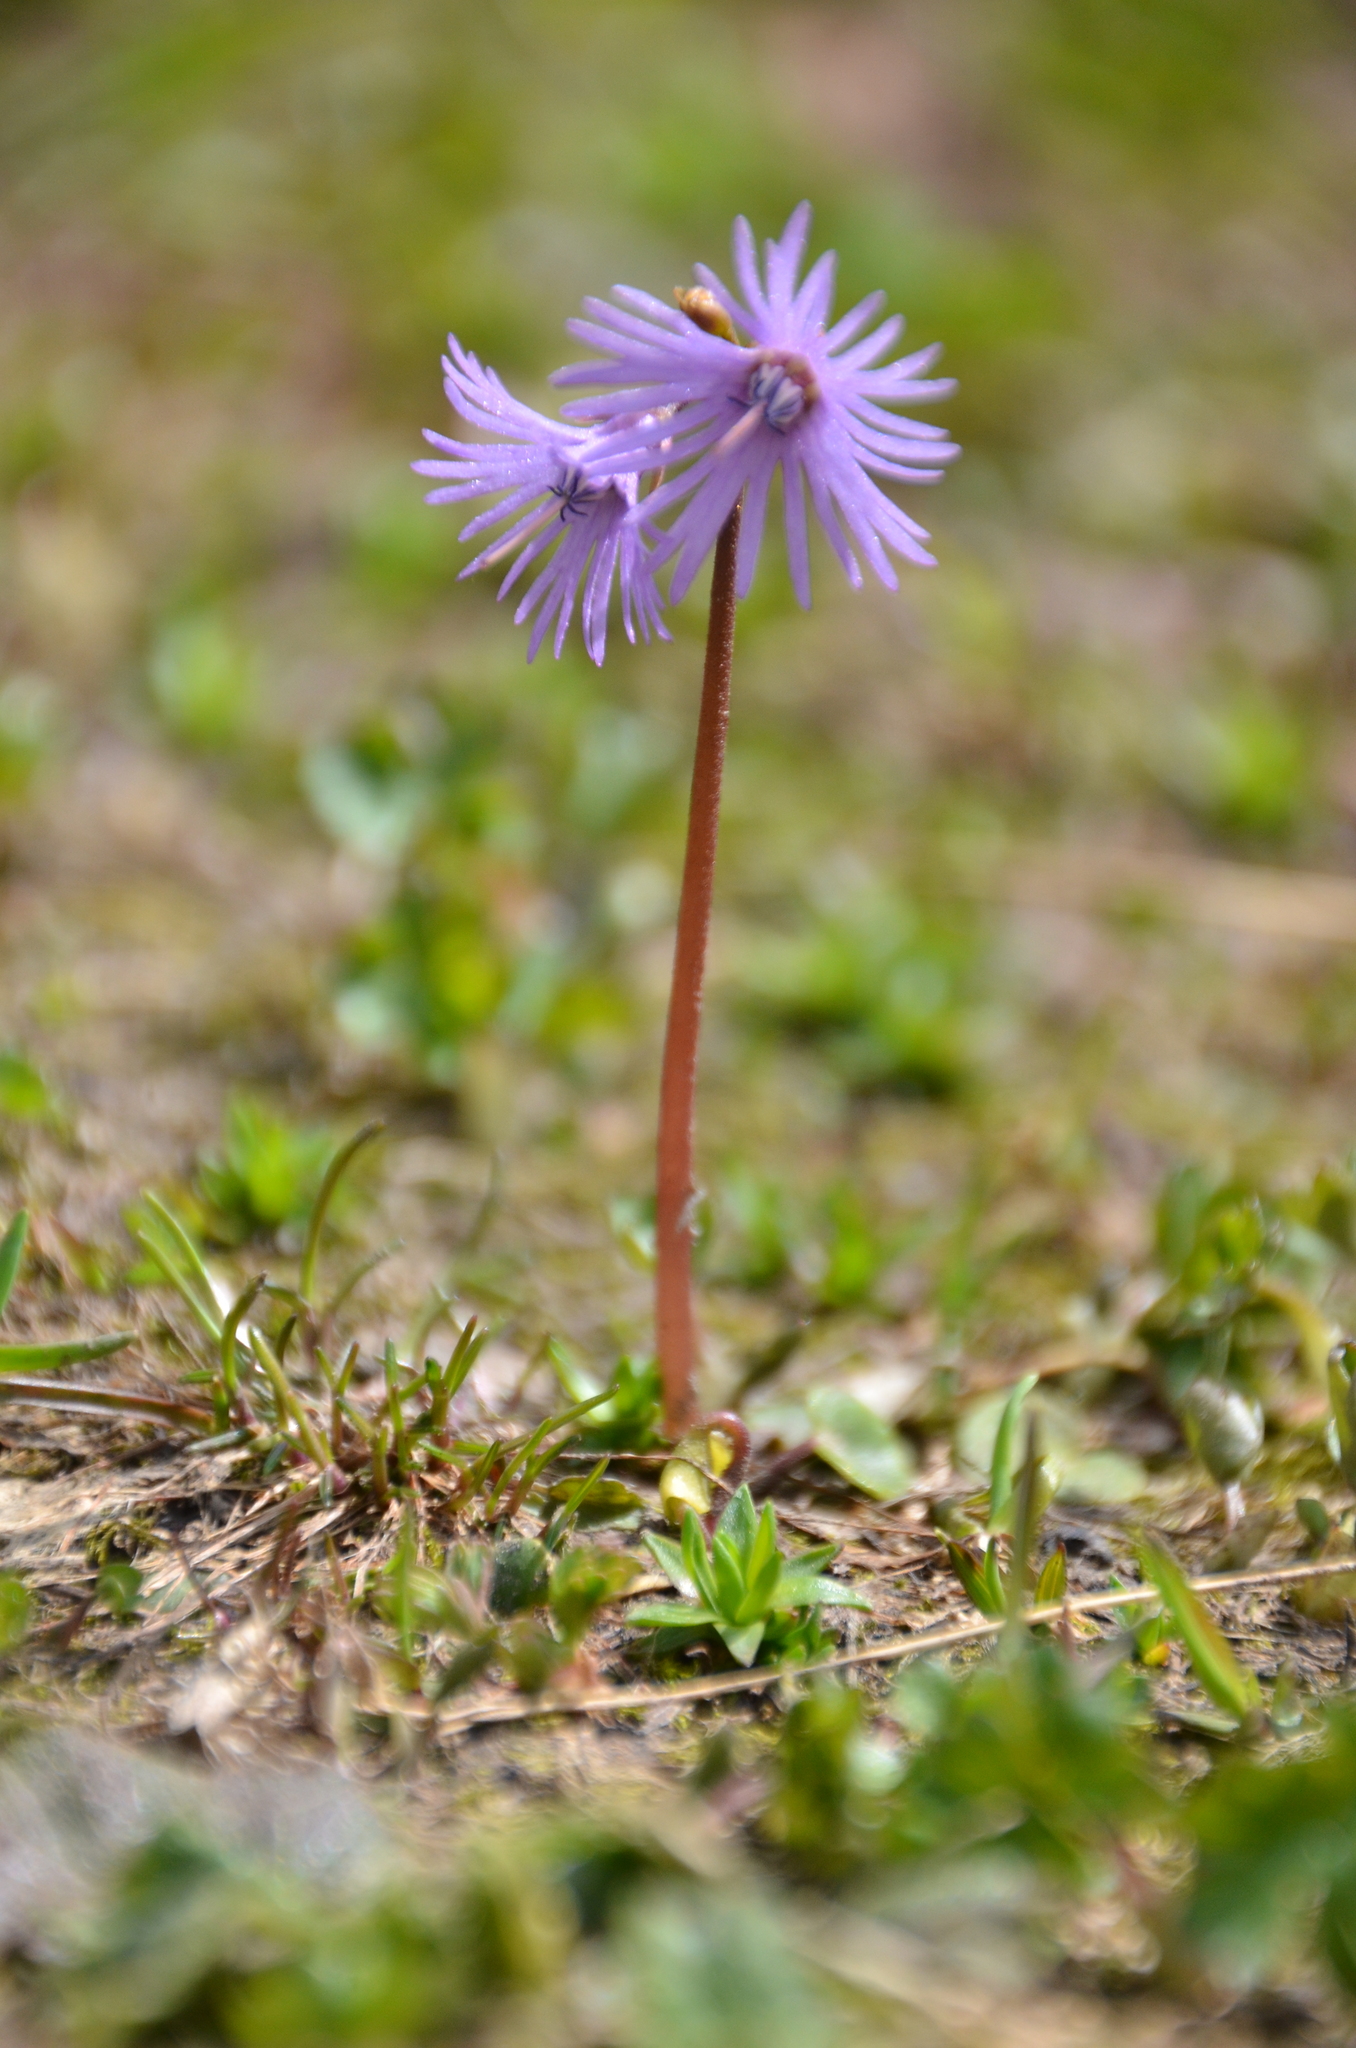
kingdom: Plantae
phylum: Tracheophyta
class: Magnoliopsida
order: Ericales
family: Primulaceae
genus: Soldanella
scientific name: Soldanella alpina
